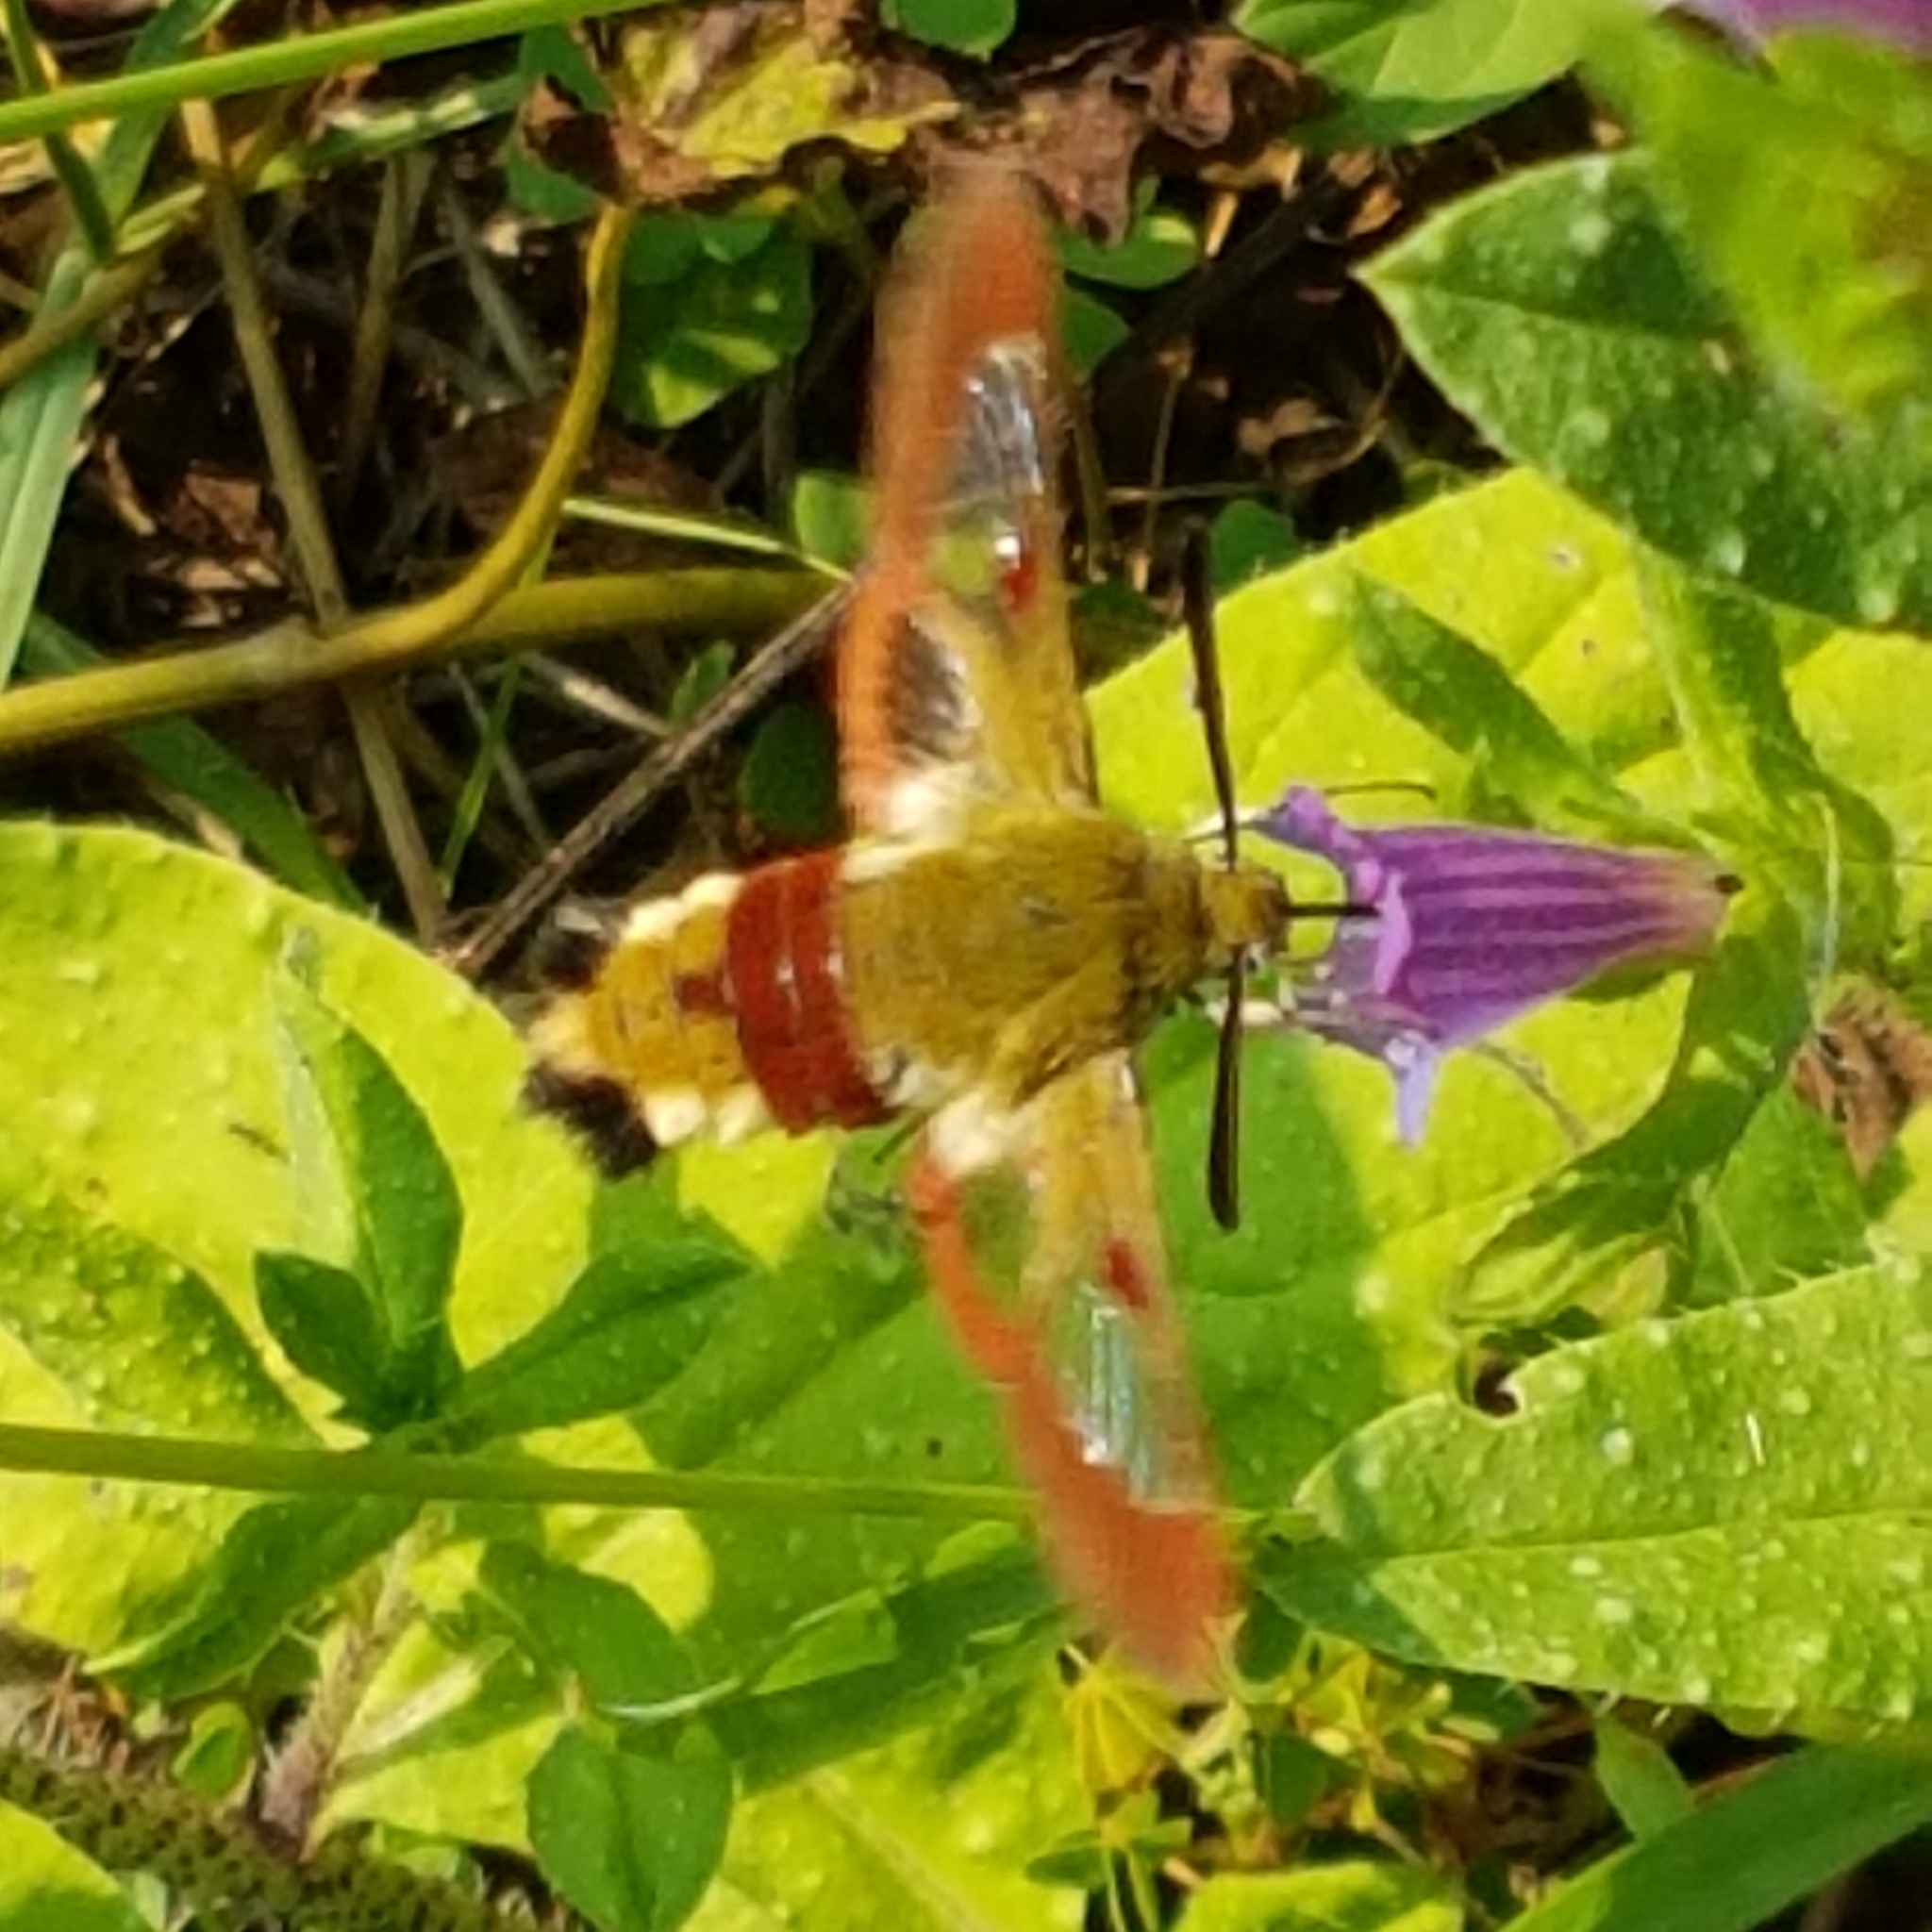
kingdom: Animalia
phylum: Arthropoda
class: Insecta
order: Lepidoptera
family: Sphingidae
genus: Hemaris
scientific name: Hemaris fuciformis
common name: Broad-bordered bee hawk-moth
